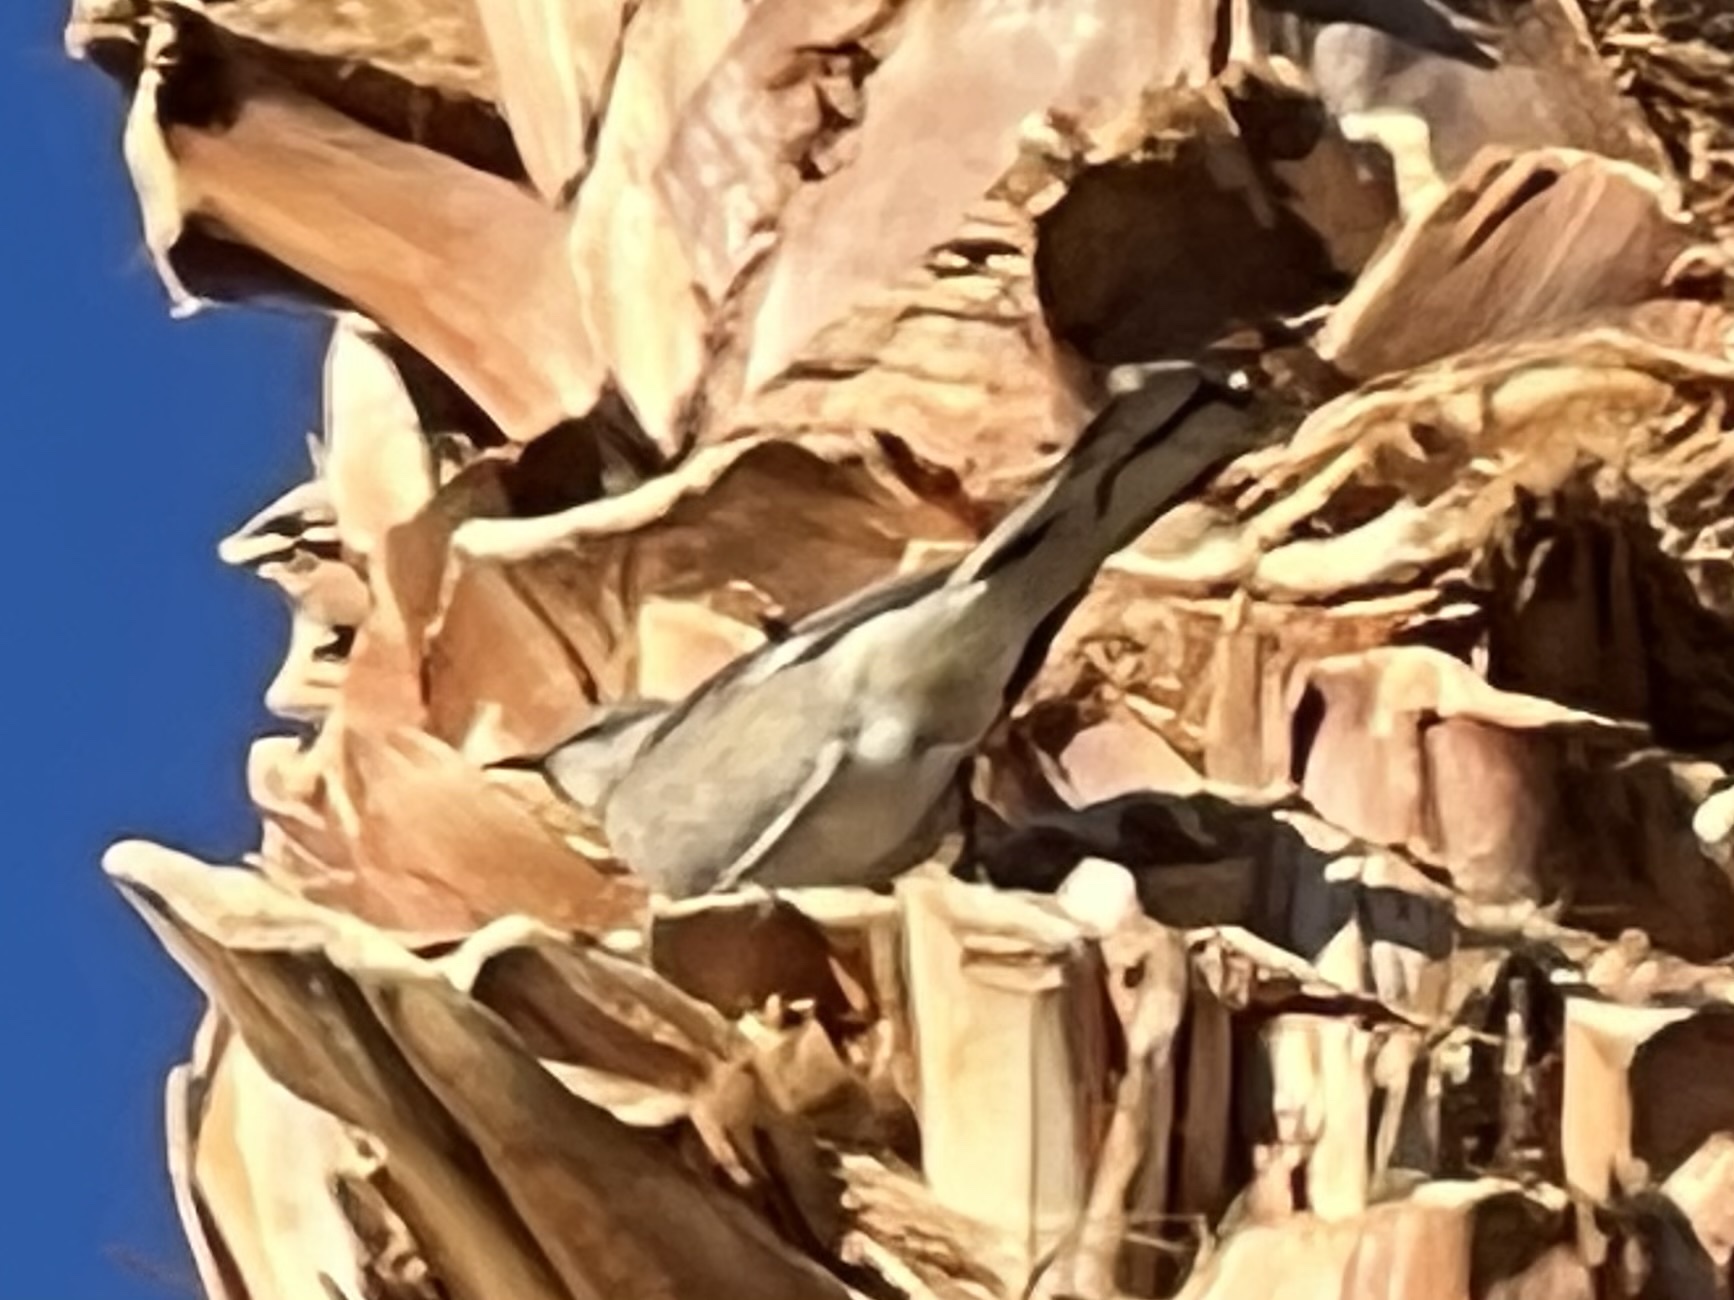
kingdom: Animalia
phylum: Chordata
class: Aves
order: Passeriformes
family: Mimidae
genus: Mimus
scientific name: Mimus polyglottos
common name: Northern mockingbird
